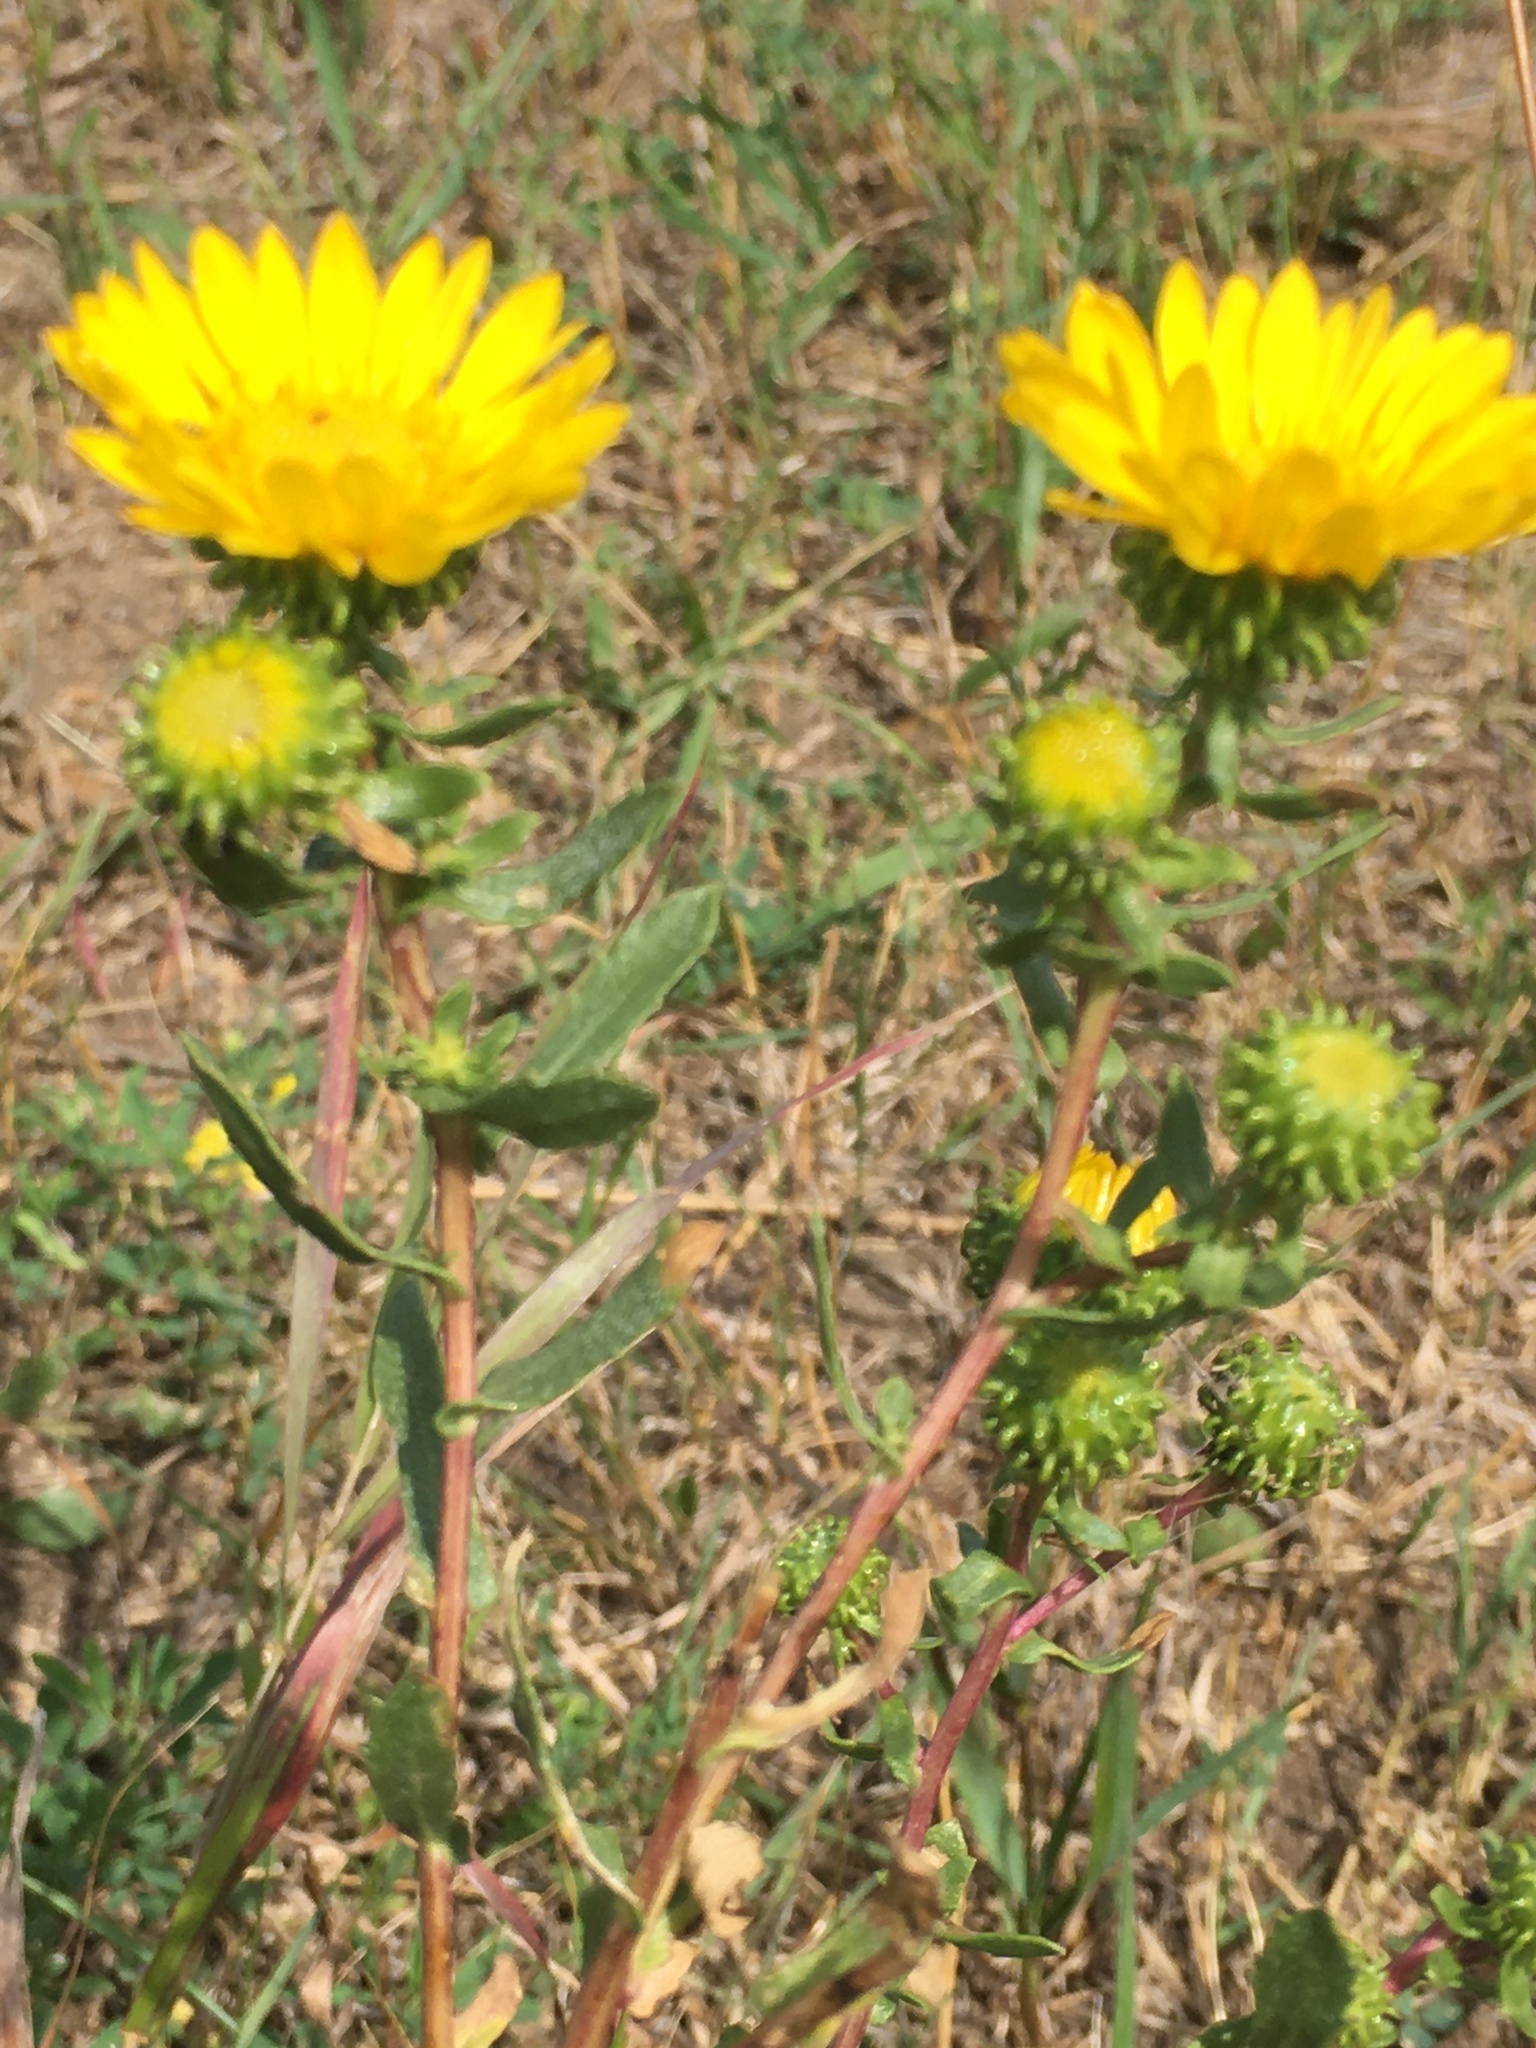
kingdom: Plantae
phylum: Tracheophyta
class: Magnoliopsida
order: Asterales
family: Asteraceae
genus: Grindelia
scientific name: Grindelia squarrosa
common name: Curly-cup gumweed
